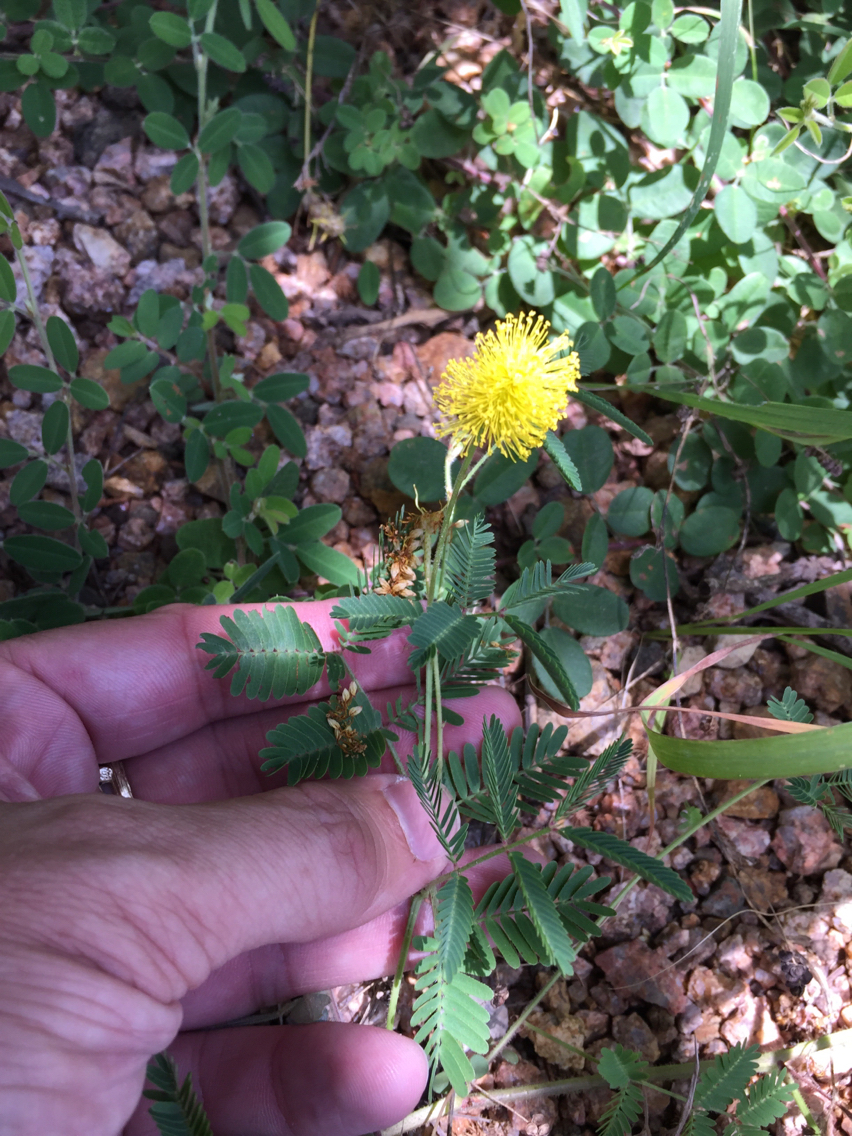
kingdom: Plantae
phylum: Tracheophyta
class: Magnoliopsida
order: Fabales
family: Fabaceae
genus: Neptunia
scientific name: Neptunia lutea
